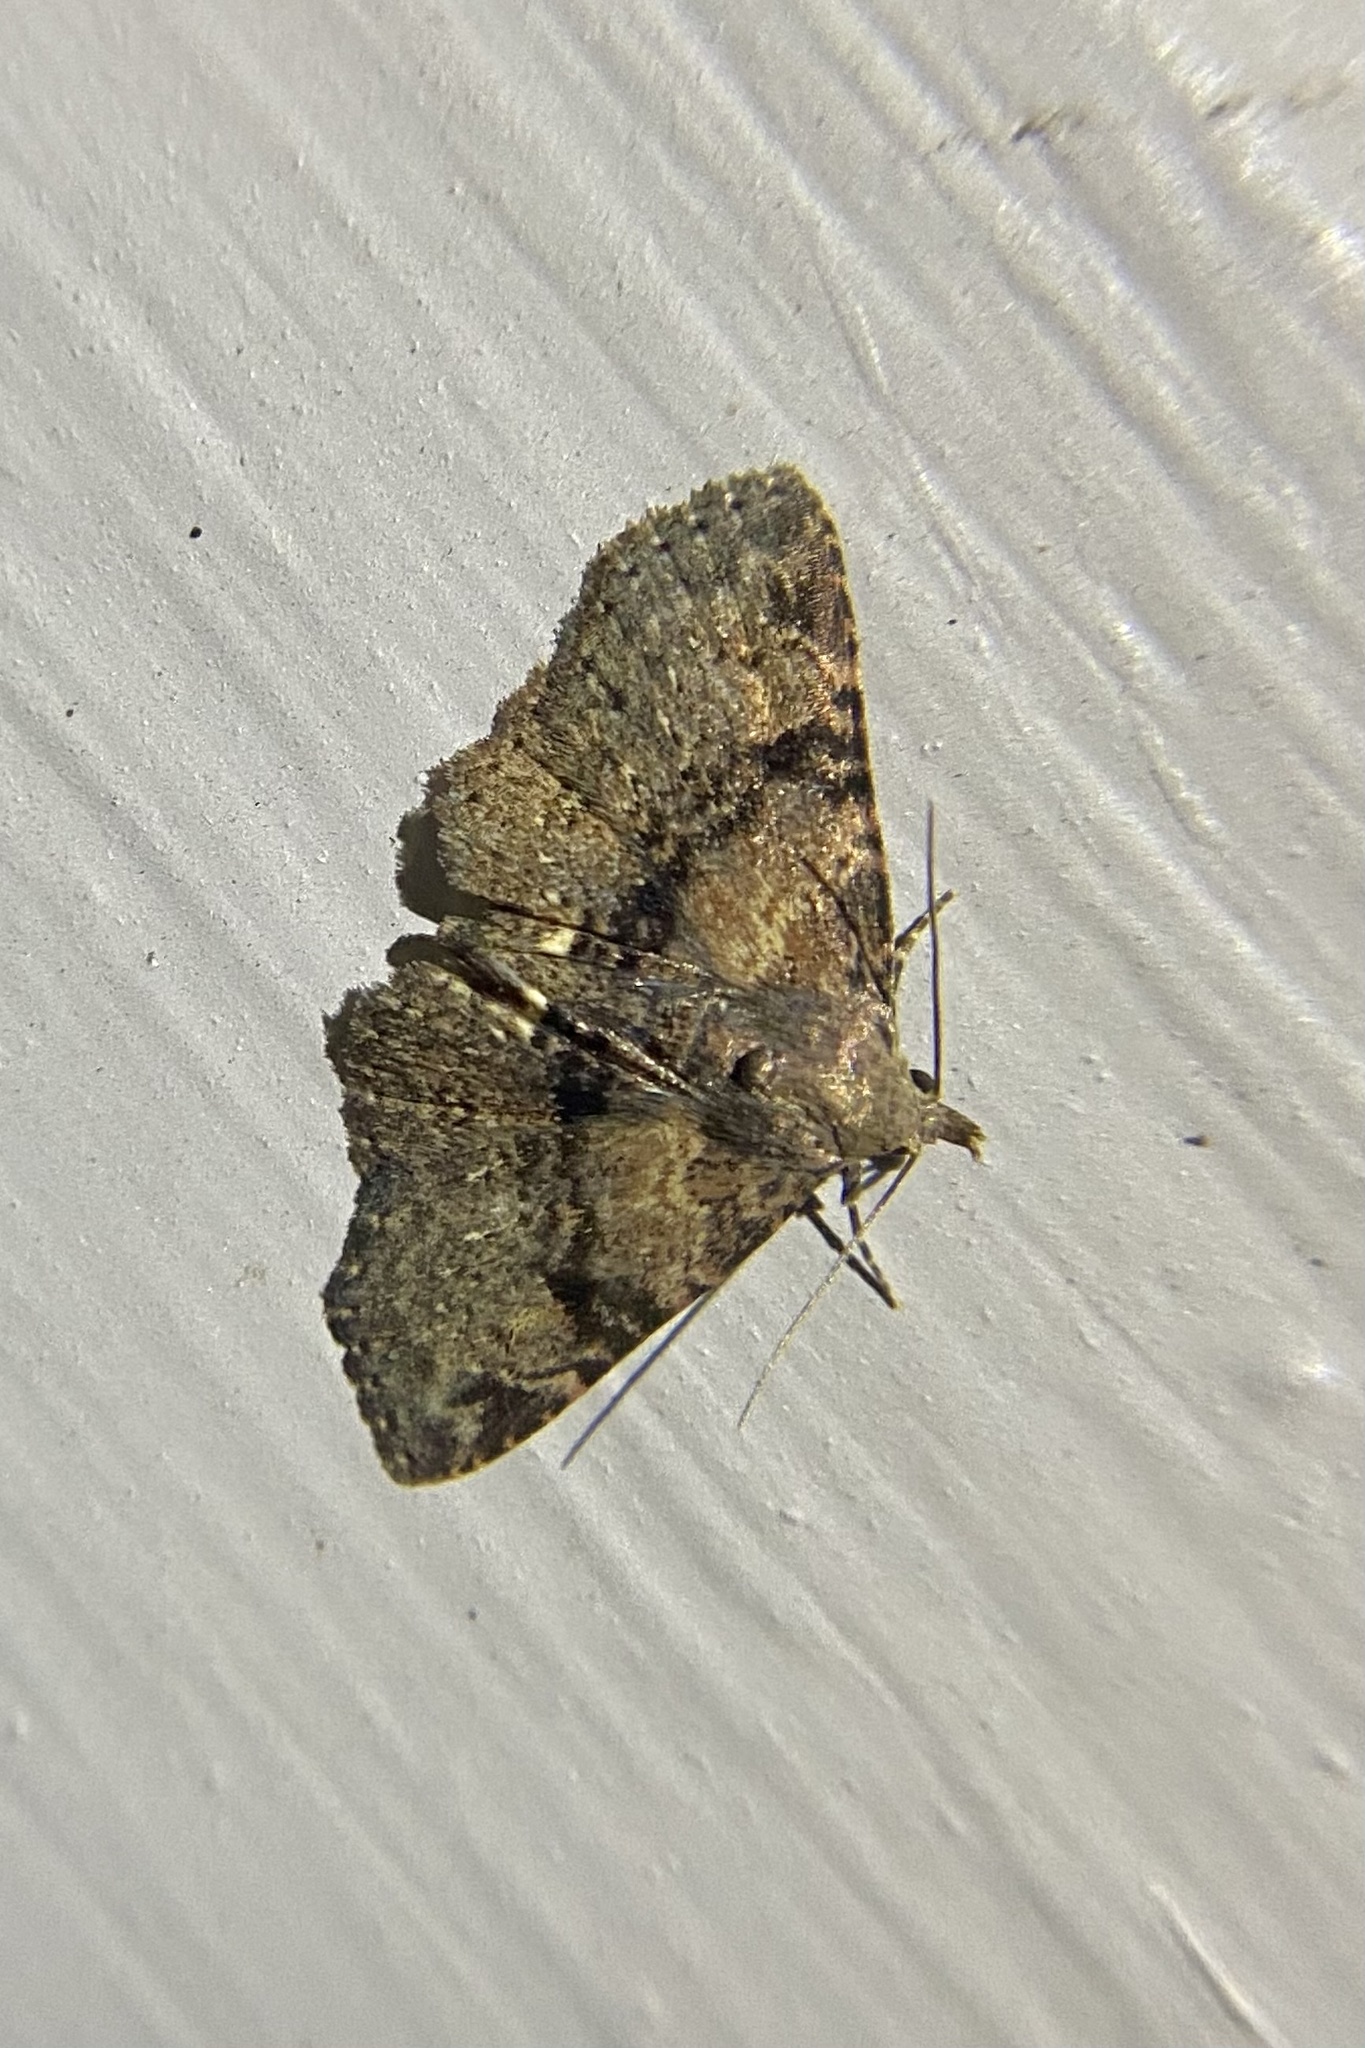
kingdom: Animalia
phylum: Arthropoda
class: Insecta
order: Lepidoptera
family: Erebidae
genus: Metalectra
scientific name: Metalectra quadrisignata
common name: Four-spotted fungus moth
